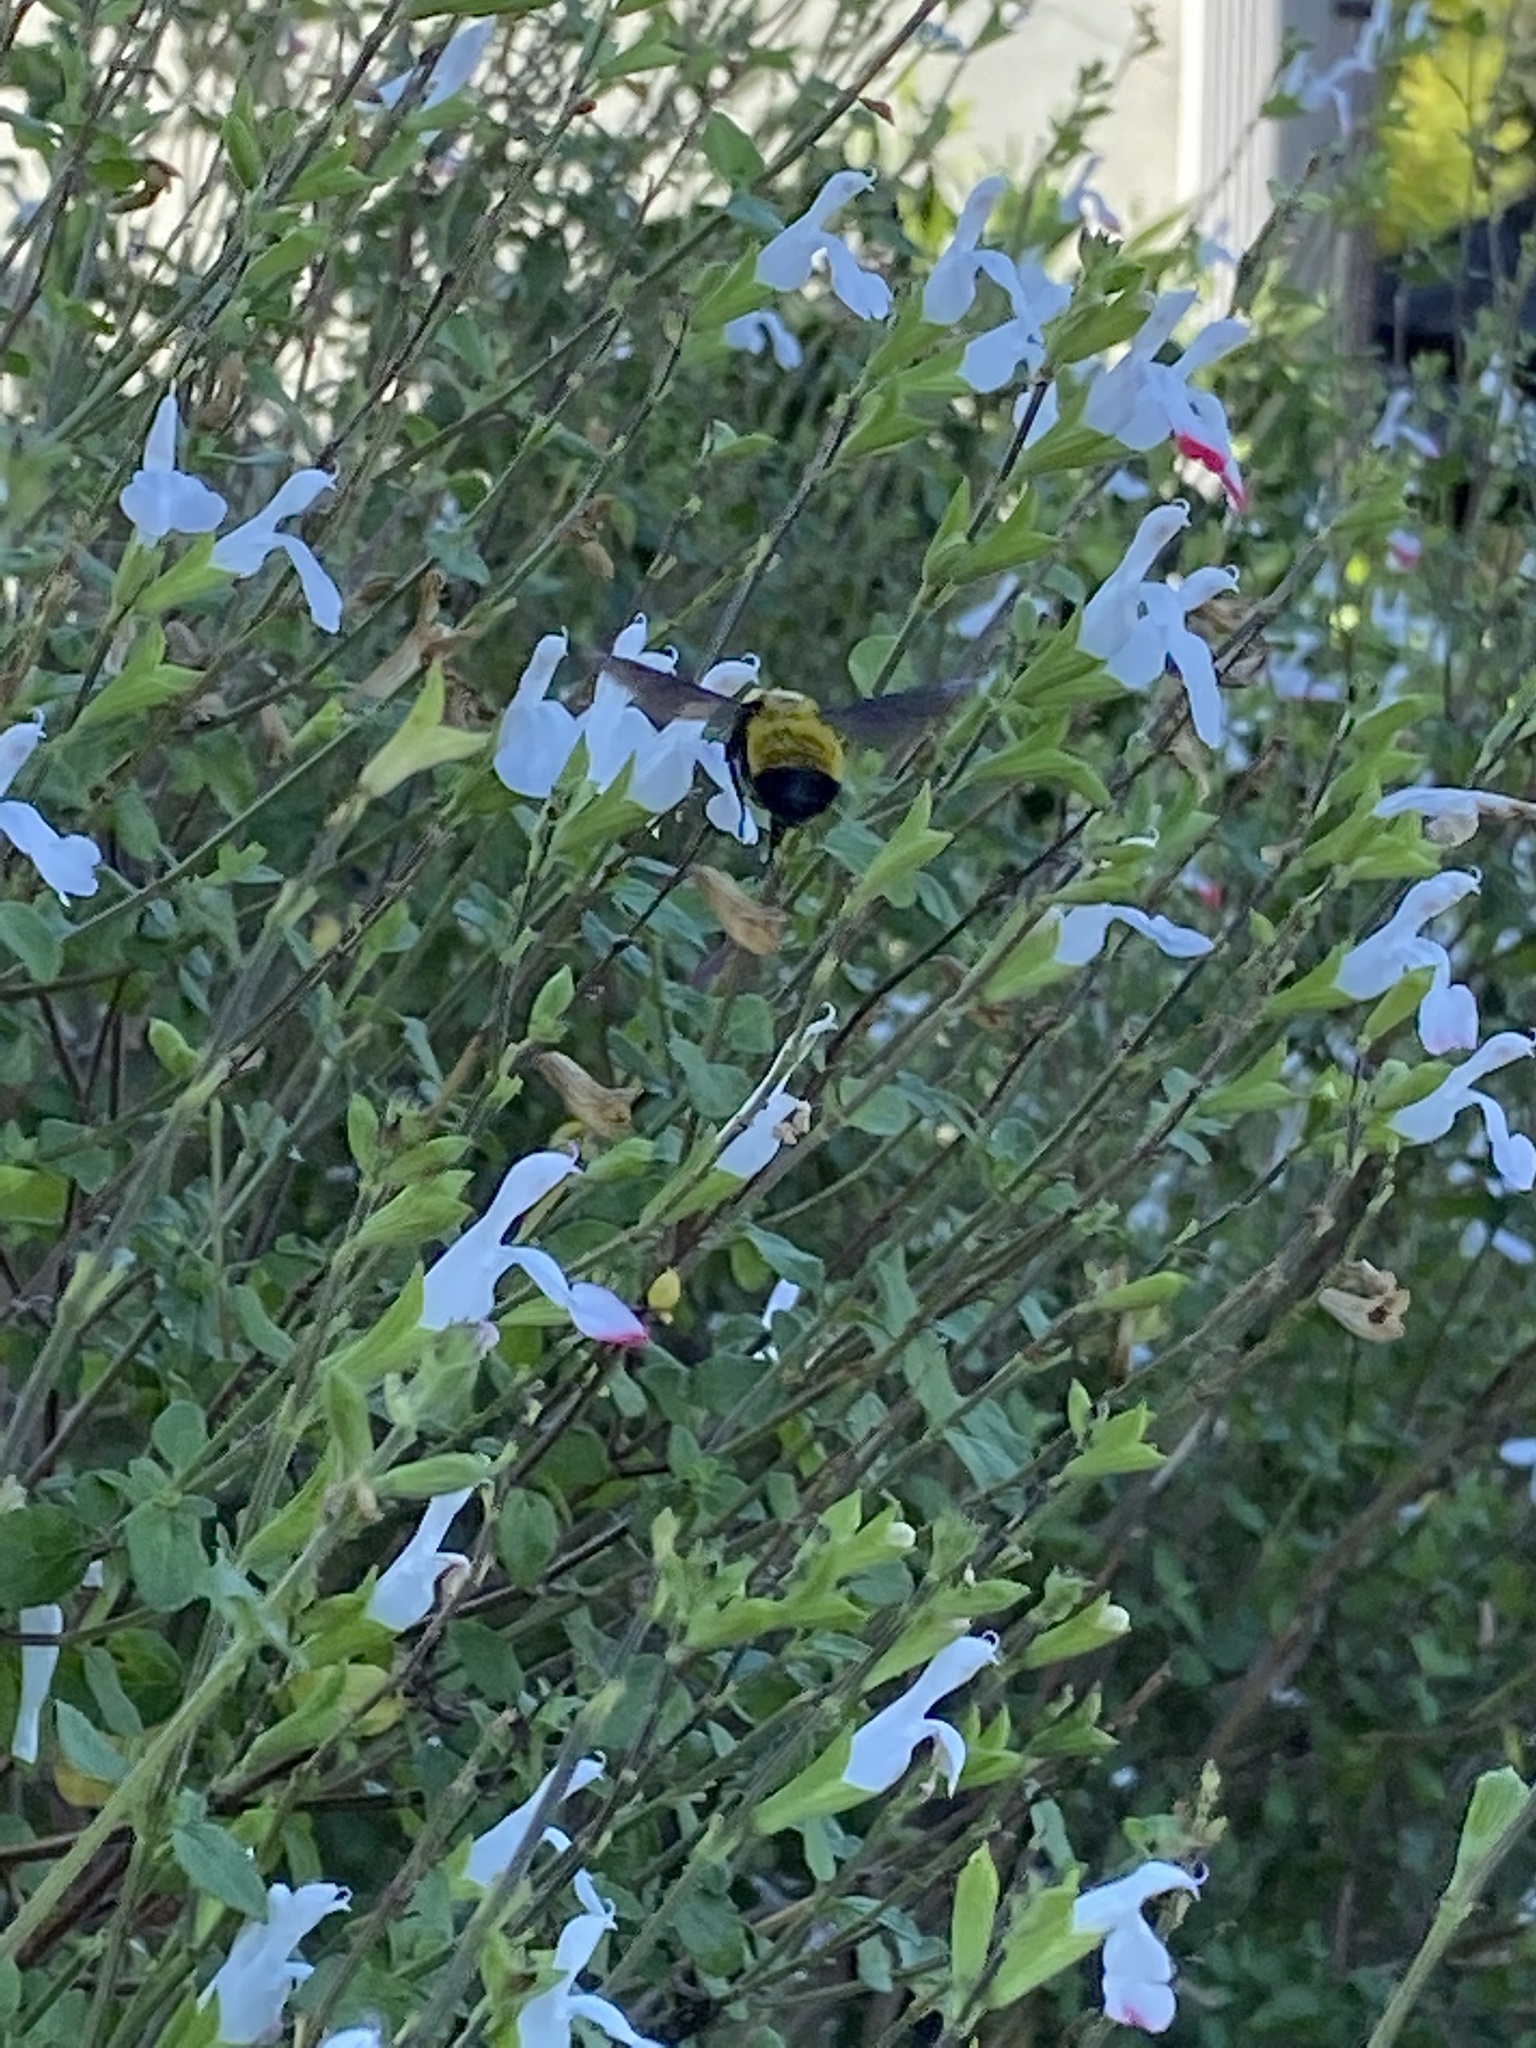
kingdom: Animalia
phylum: Arthropoda
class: Insecta
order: Hymenoptera
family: Apidae
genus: Bombus
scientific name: Bombus sonorus
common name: Sonoran bumble bee
